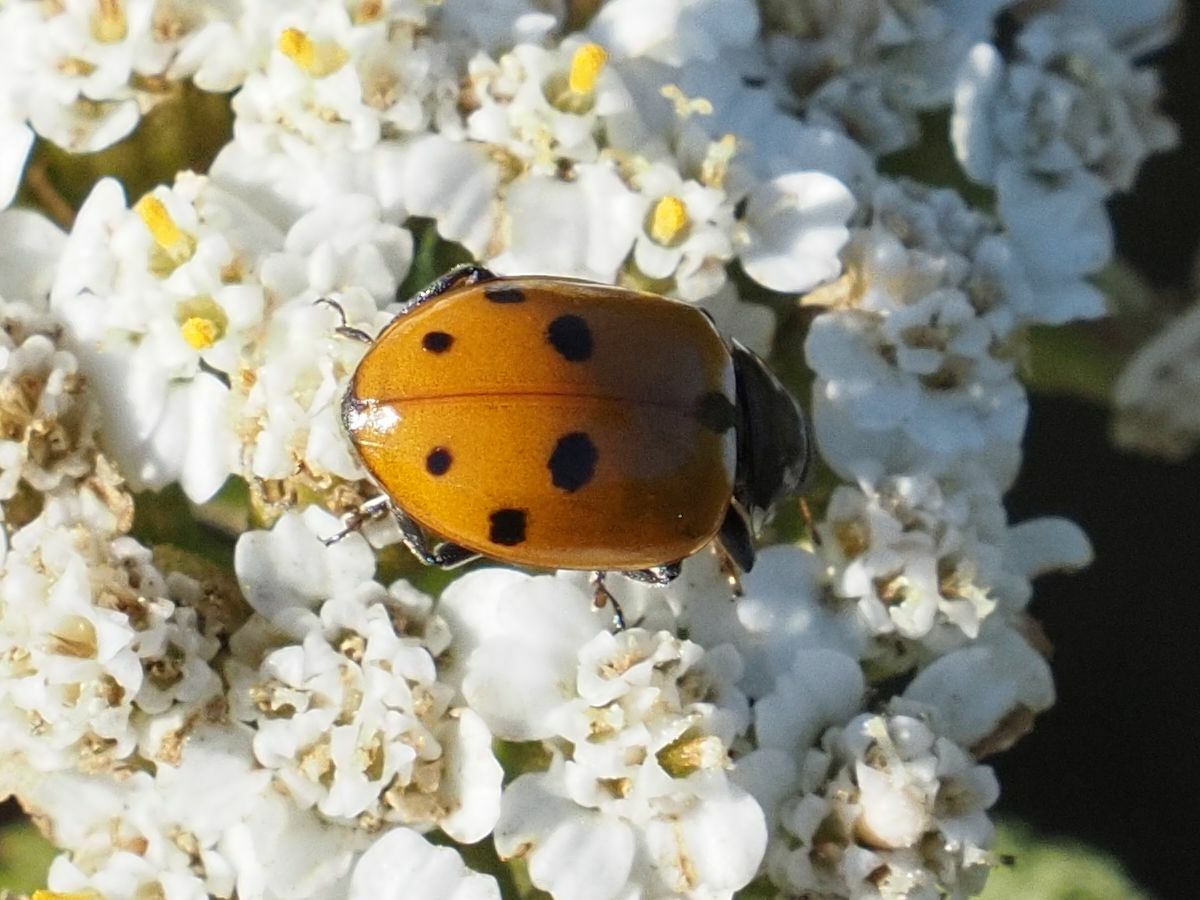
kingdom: Animalia
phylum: Arthropoda
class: Insecta
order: Coleoptera
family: Coccinellidae
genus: Hippodamia
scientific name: Hippodamia variegata
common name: Ladybird beetle
